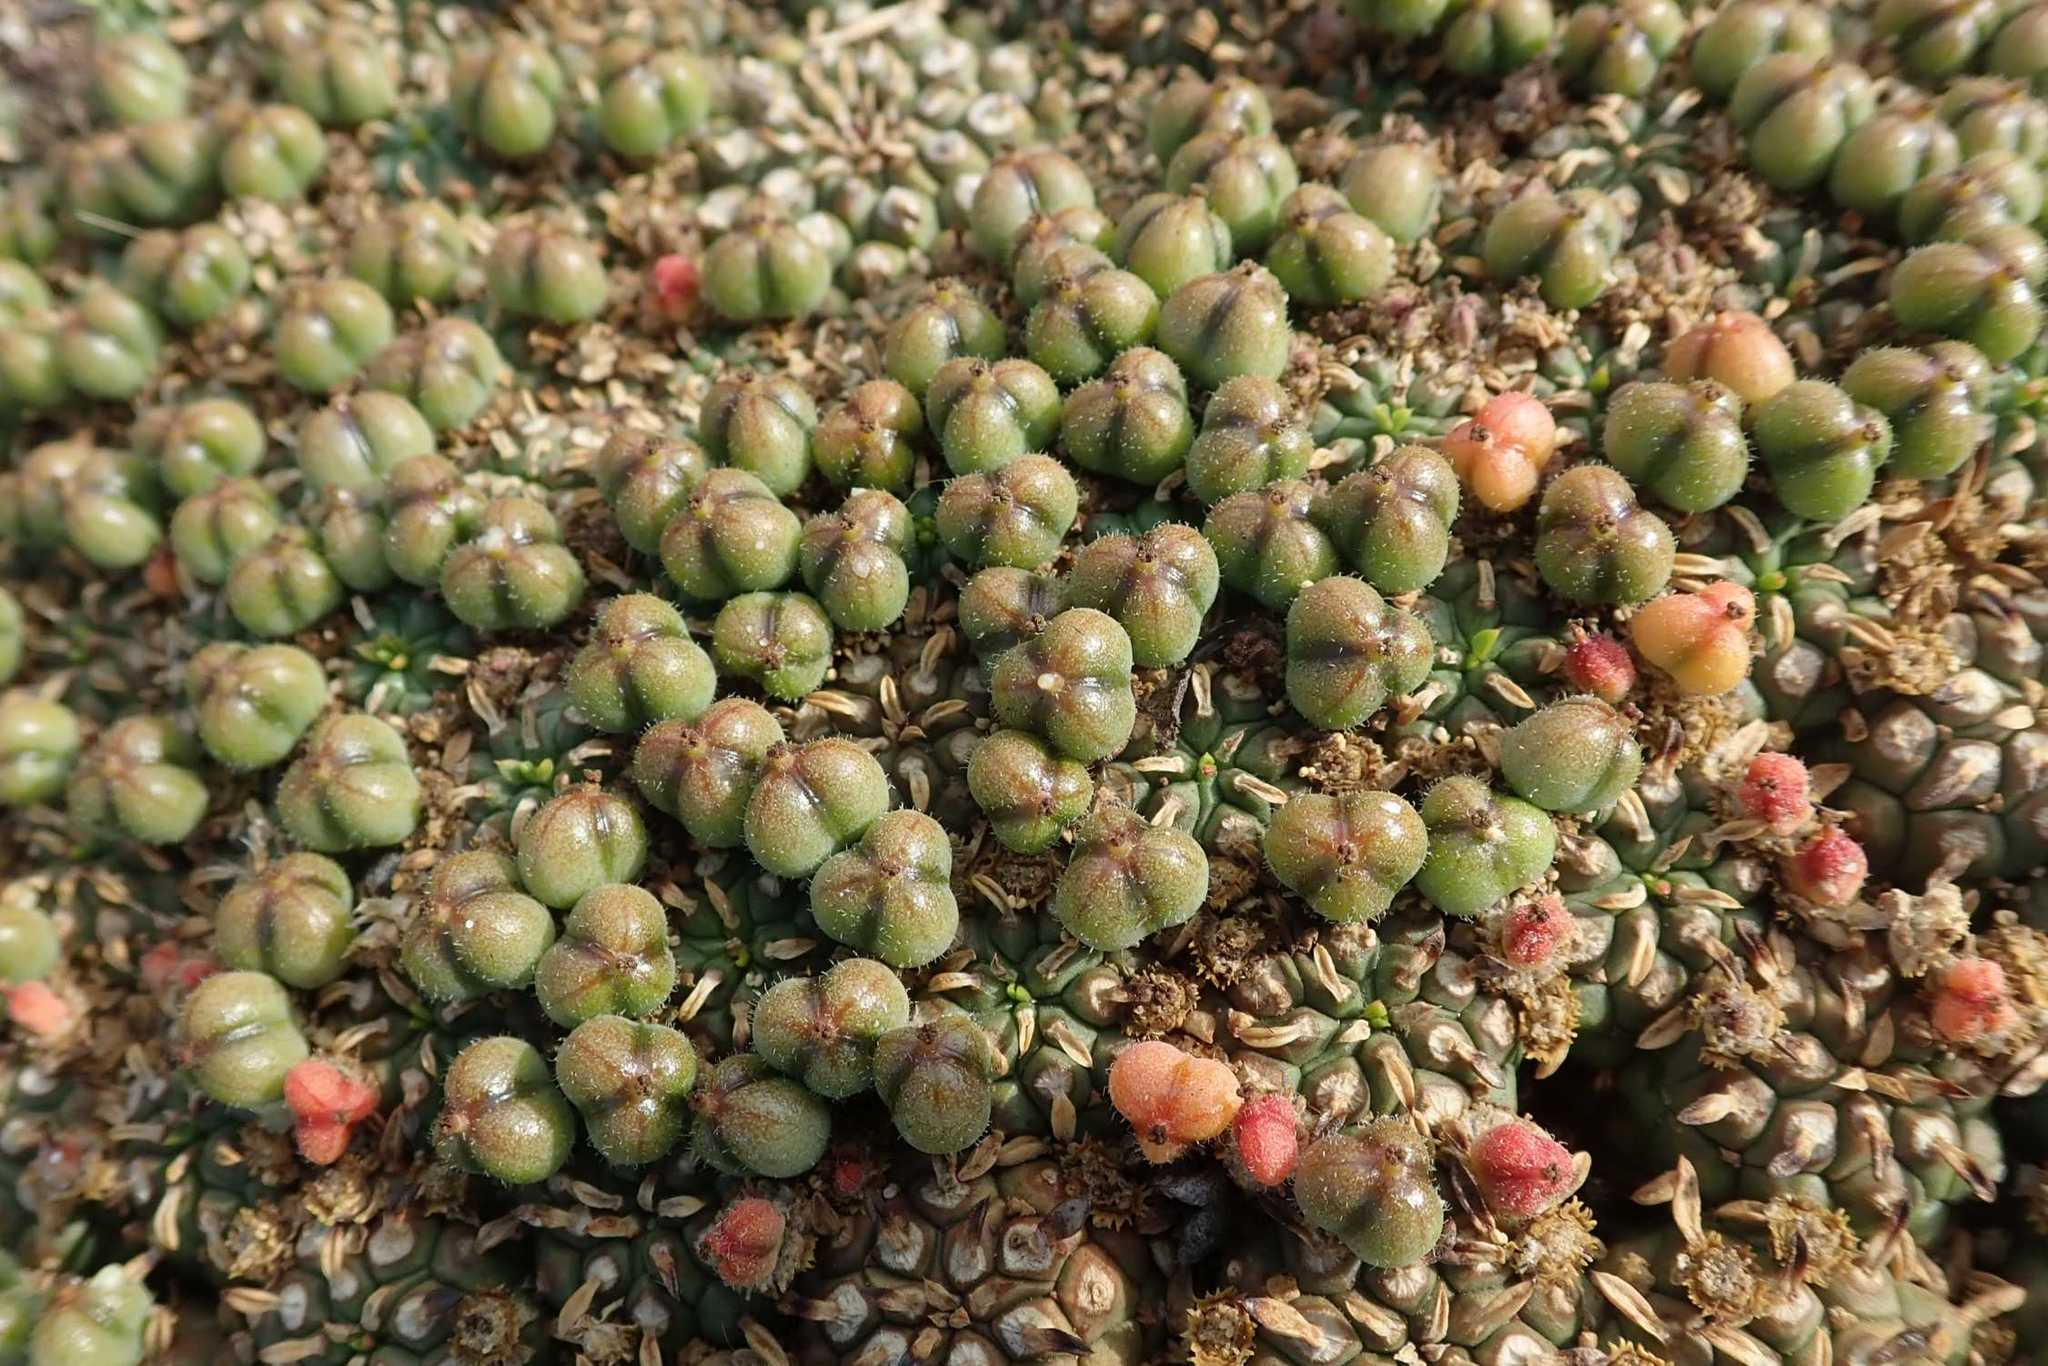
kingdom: Plantae
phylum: Tracheophyta
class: Magnoliopsida
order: Malpighiales
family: Euphorbiaceae
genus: Euphorbia
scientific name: Euphorbia clavarioides
